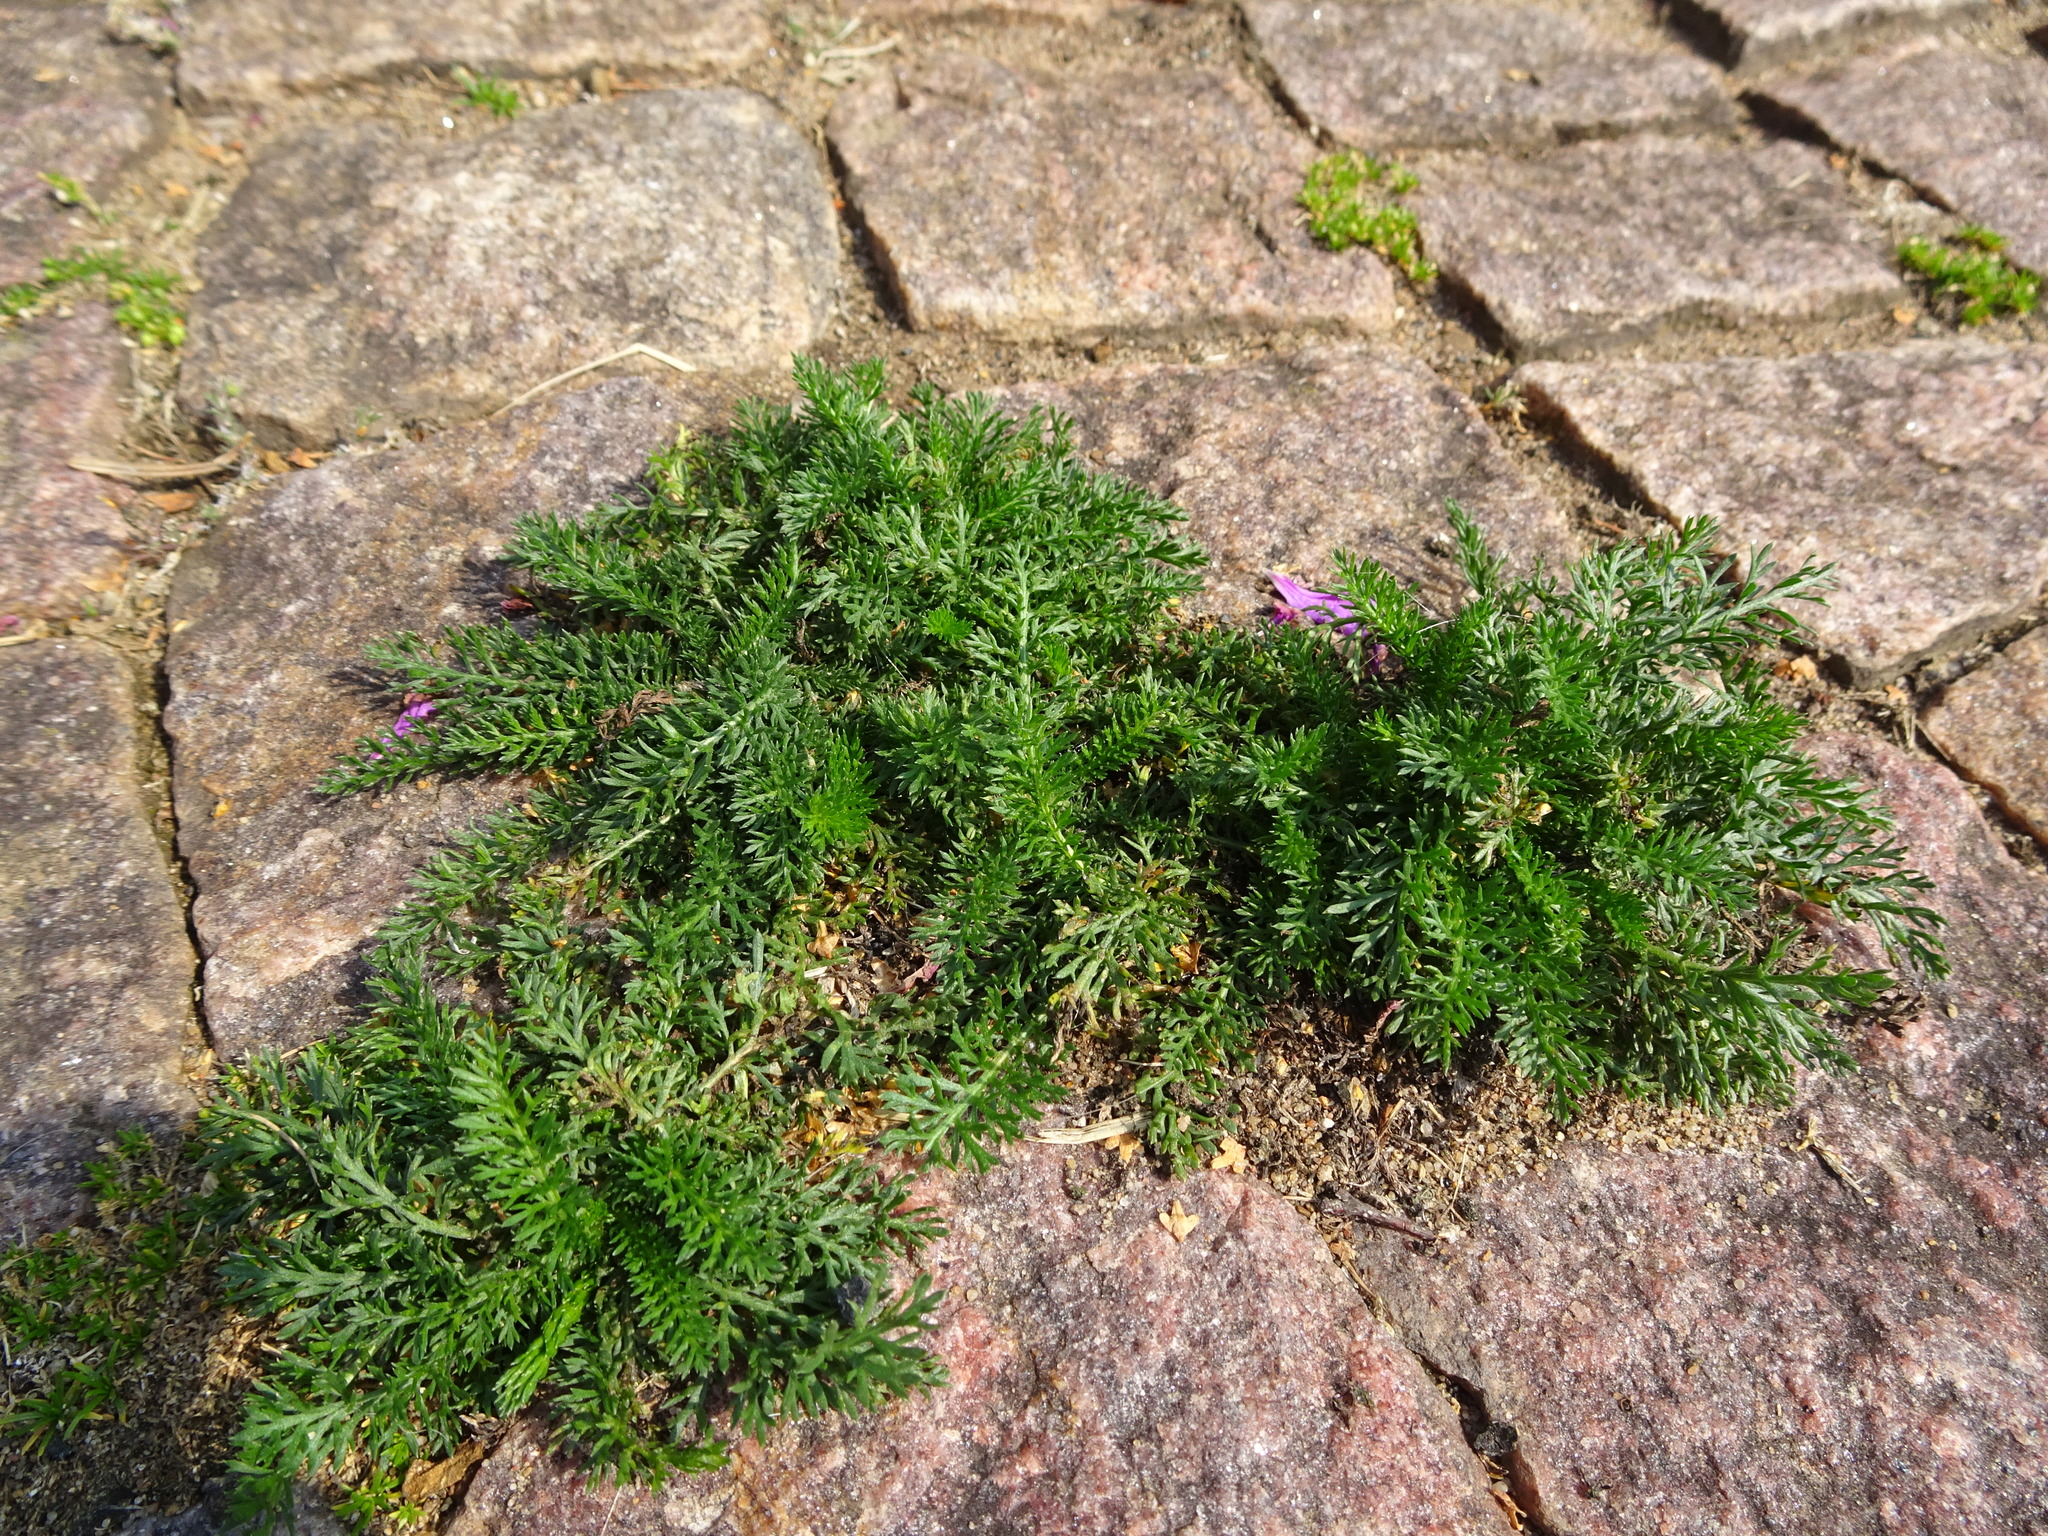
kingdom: Plantae
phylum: Tracheophyta
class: Magnoliopsida
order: Asterales
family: Asteraceae
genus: Achillea
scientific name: Achillea millefolium
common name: Yarrow
